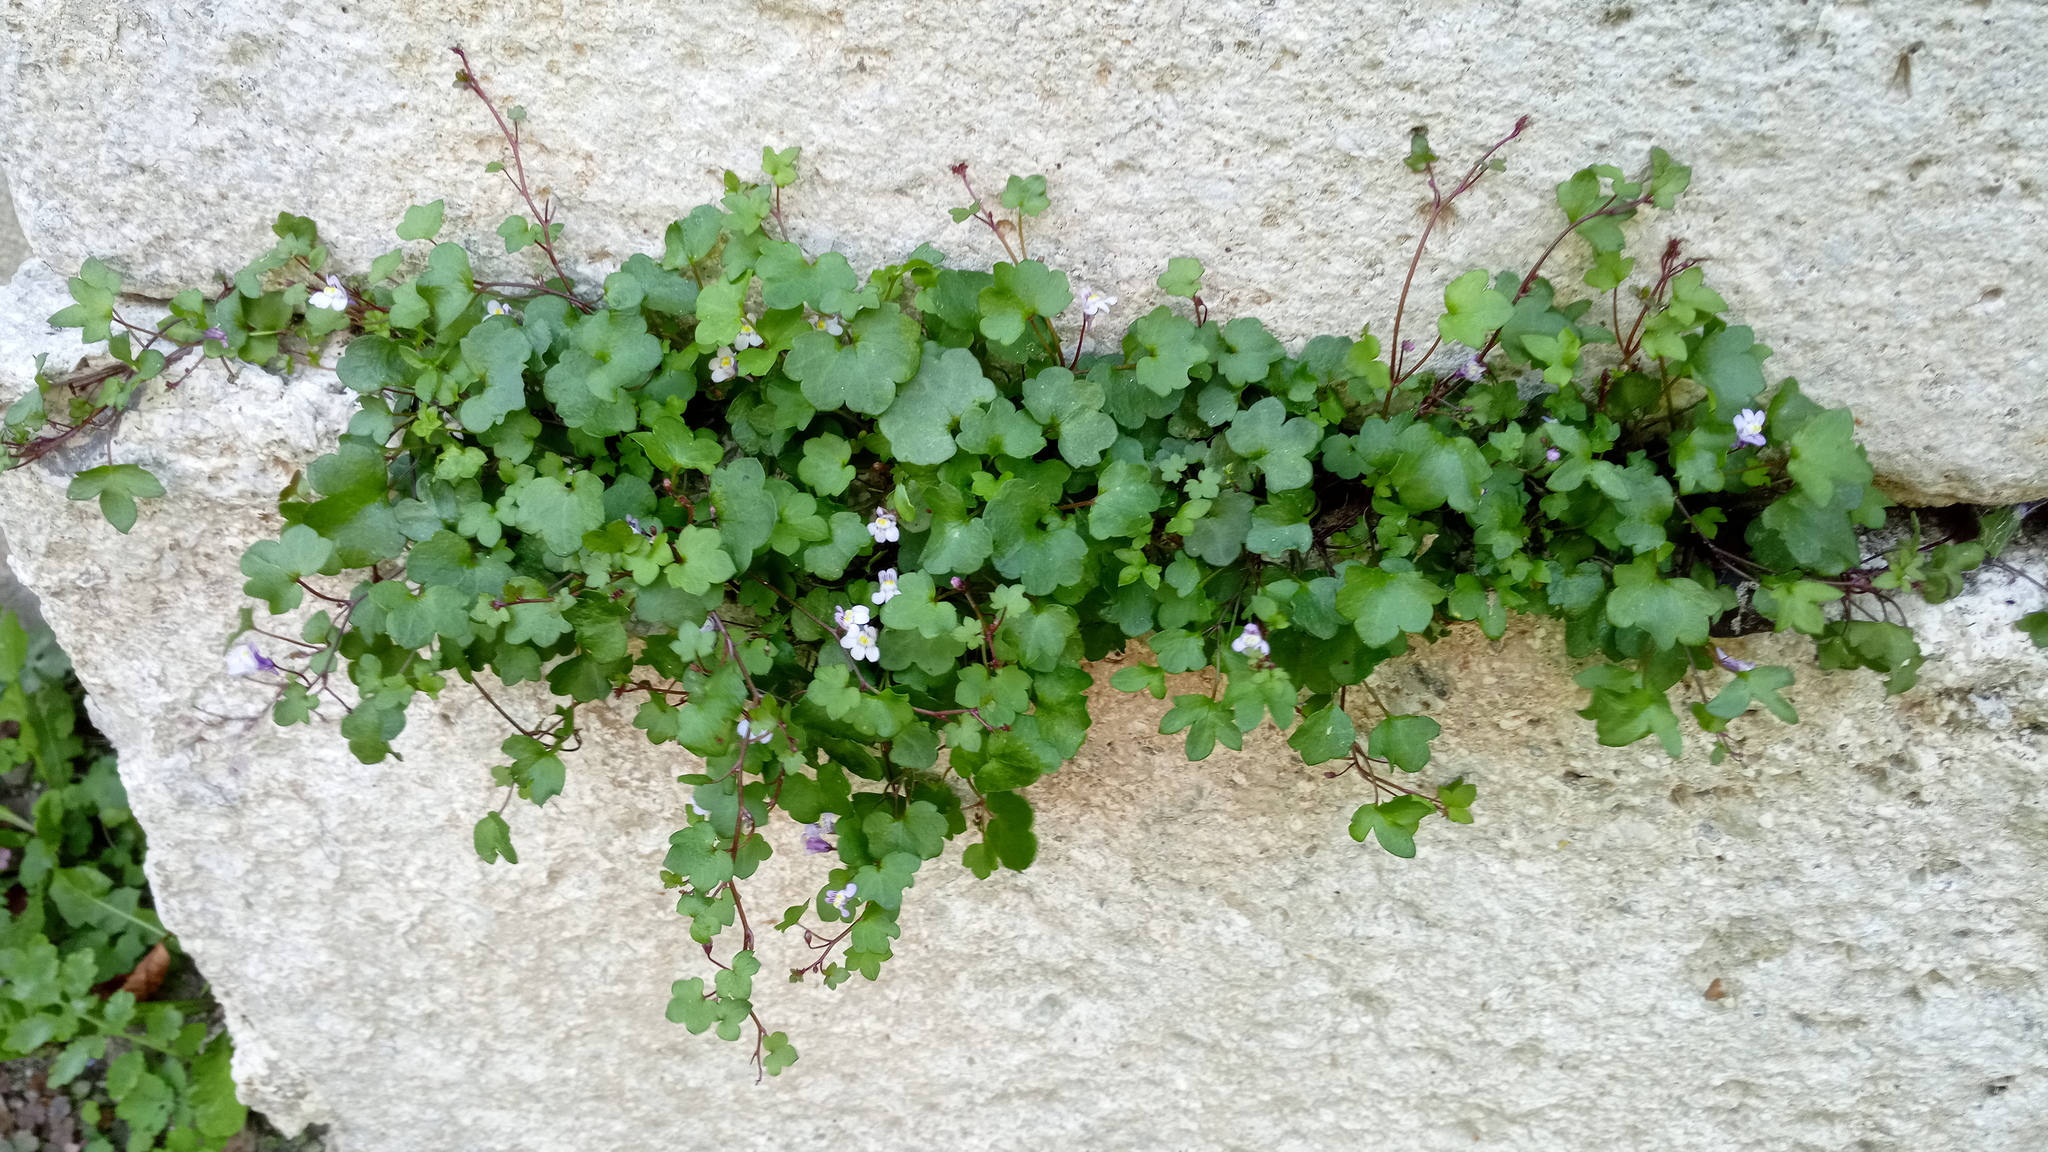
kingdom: Plantae
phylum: Tracheophyta
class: Magnoliopsida
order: Lamiales
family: Plantaginaceae
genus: Cymbalaria
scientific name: Cymbalaria muralis
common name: Ivy-leaved toadflax
